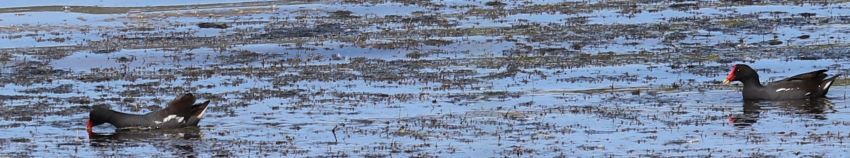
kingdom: Animalia
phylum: Chordata
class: Aves
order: Gruiformes
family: Rallidae
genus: Gallinula
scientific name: Gallinula chloropus
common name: Common moorhen
